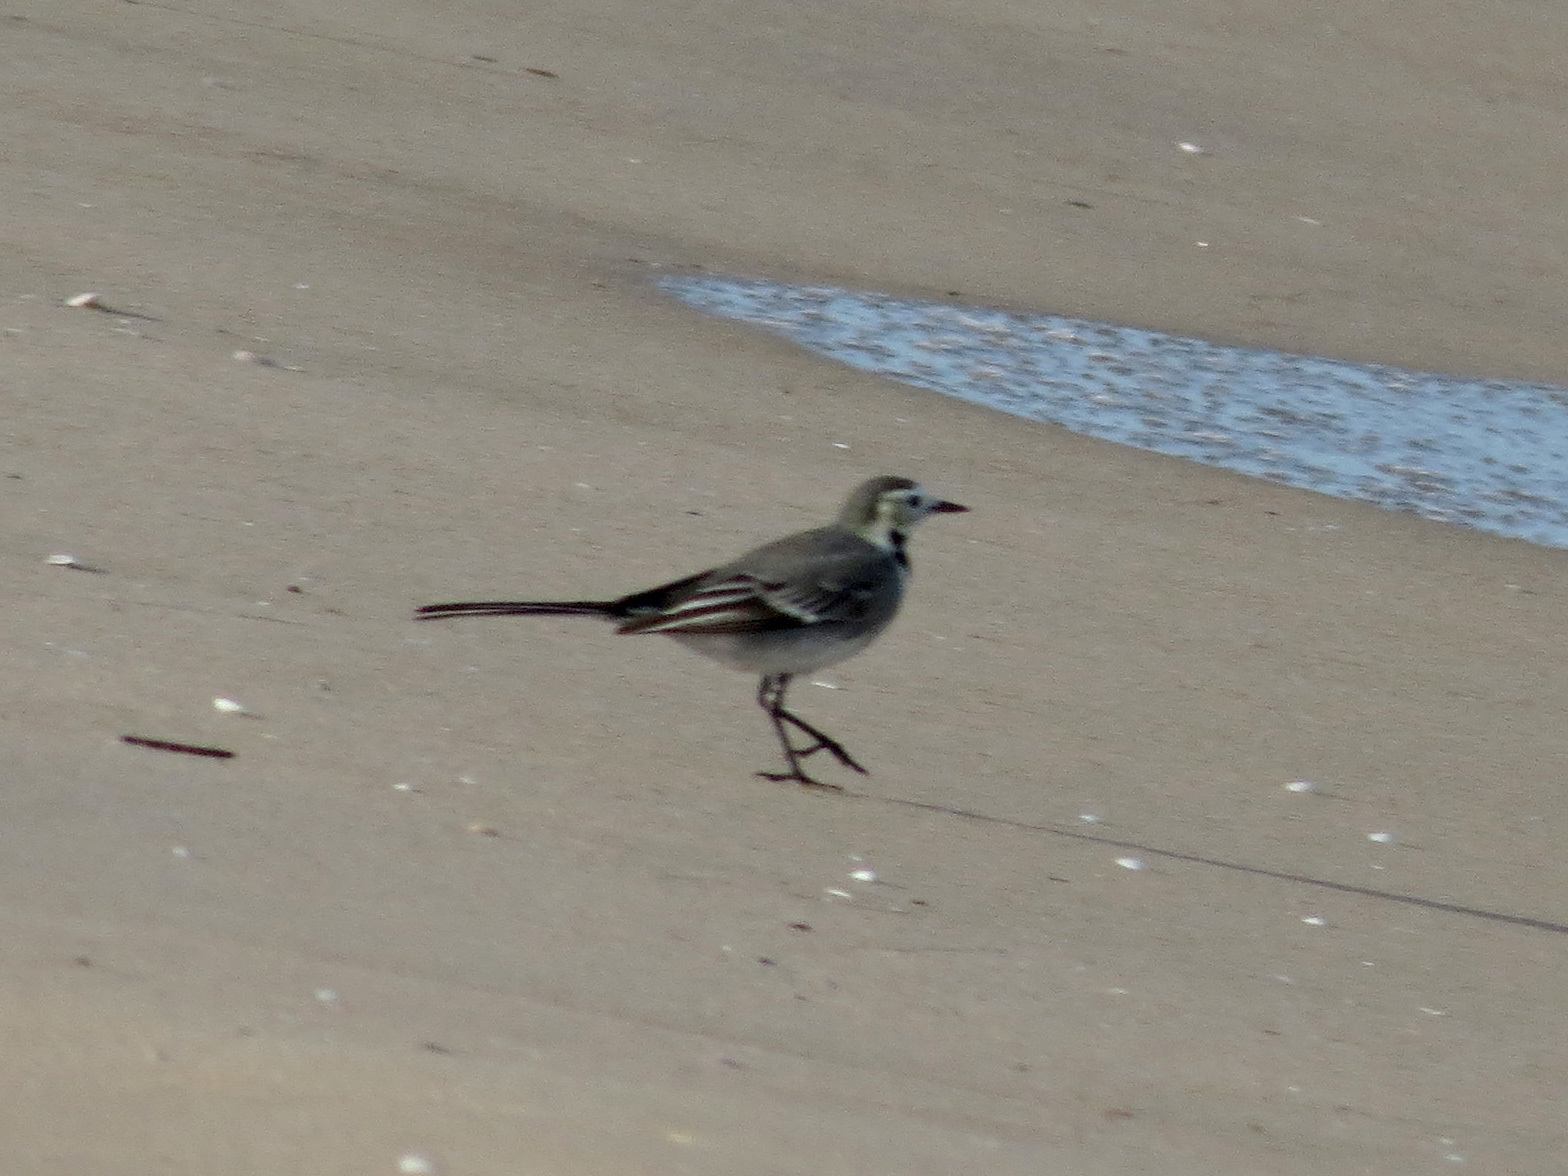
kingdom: Animalia
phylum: Chordata
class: Aves
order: Passeriformes
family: Motacillidae
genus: Motacilla
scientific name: Motacilla alba
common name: White wagtail
